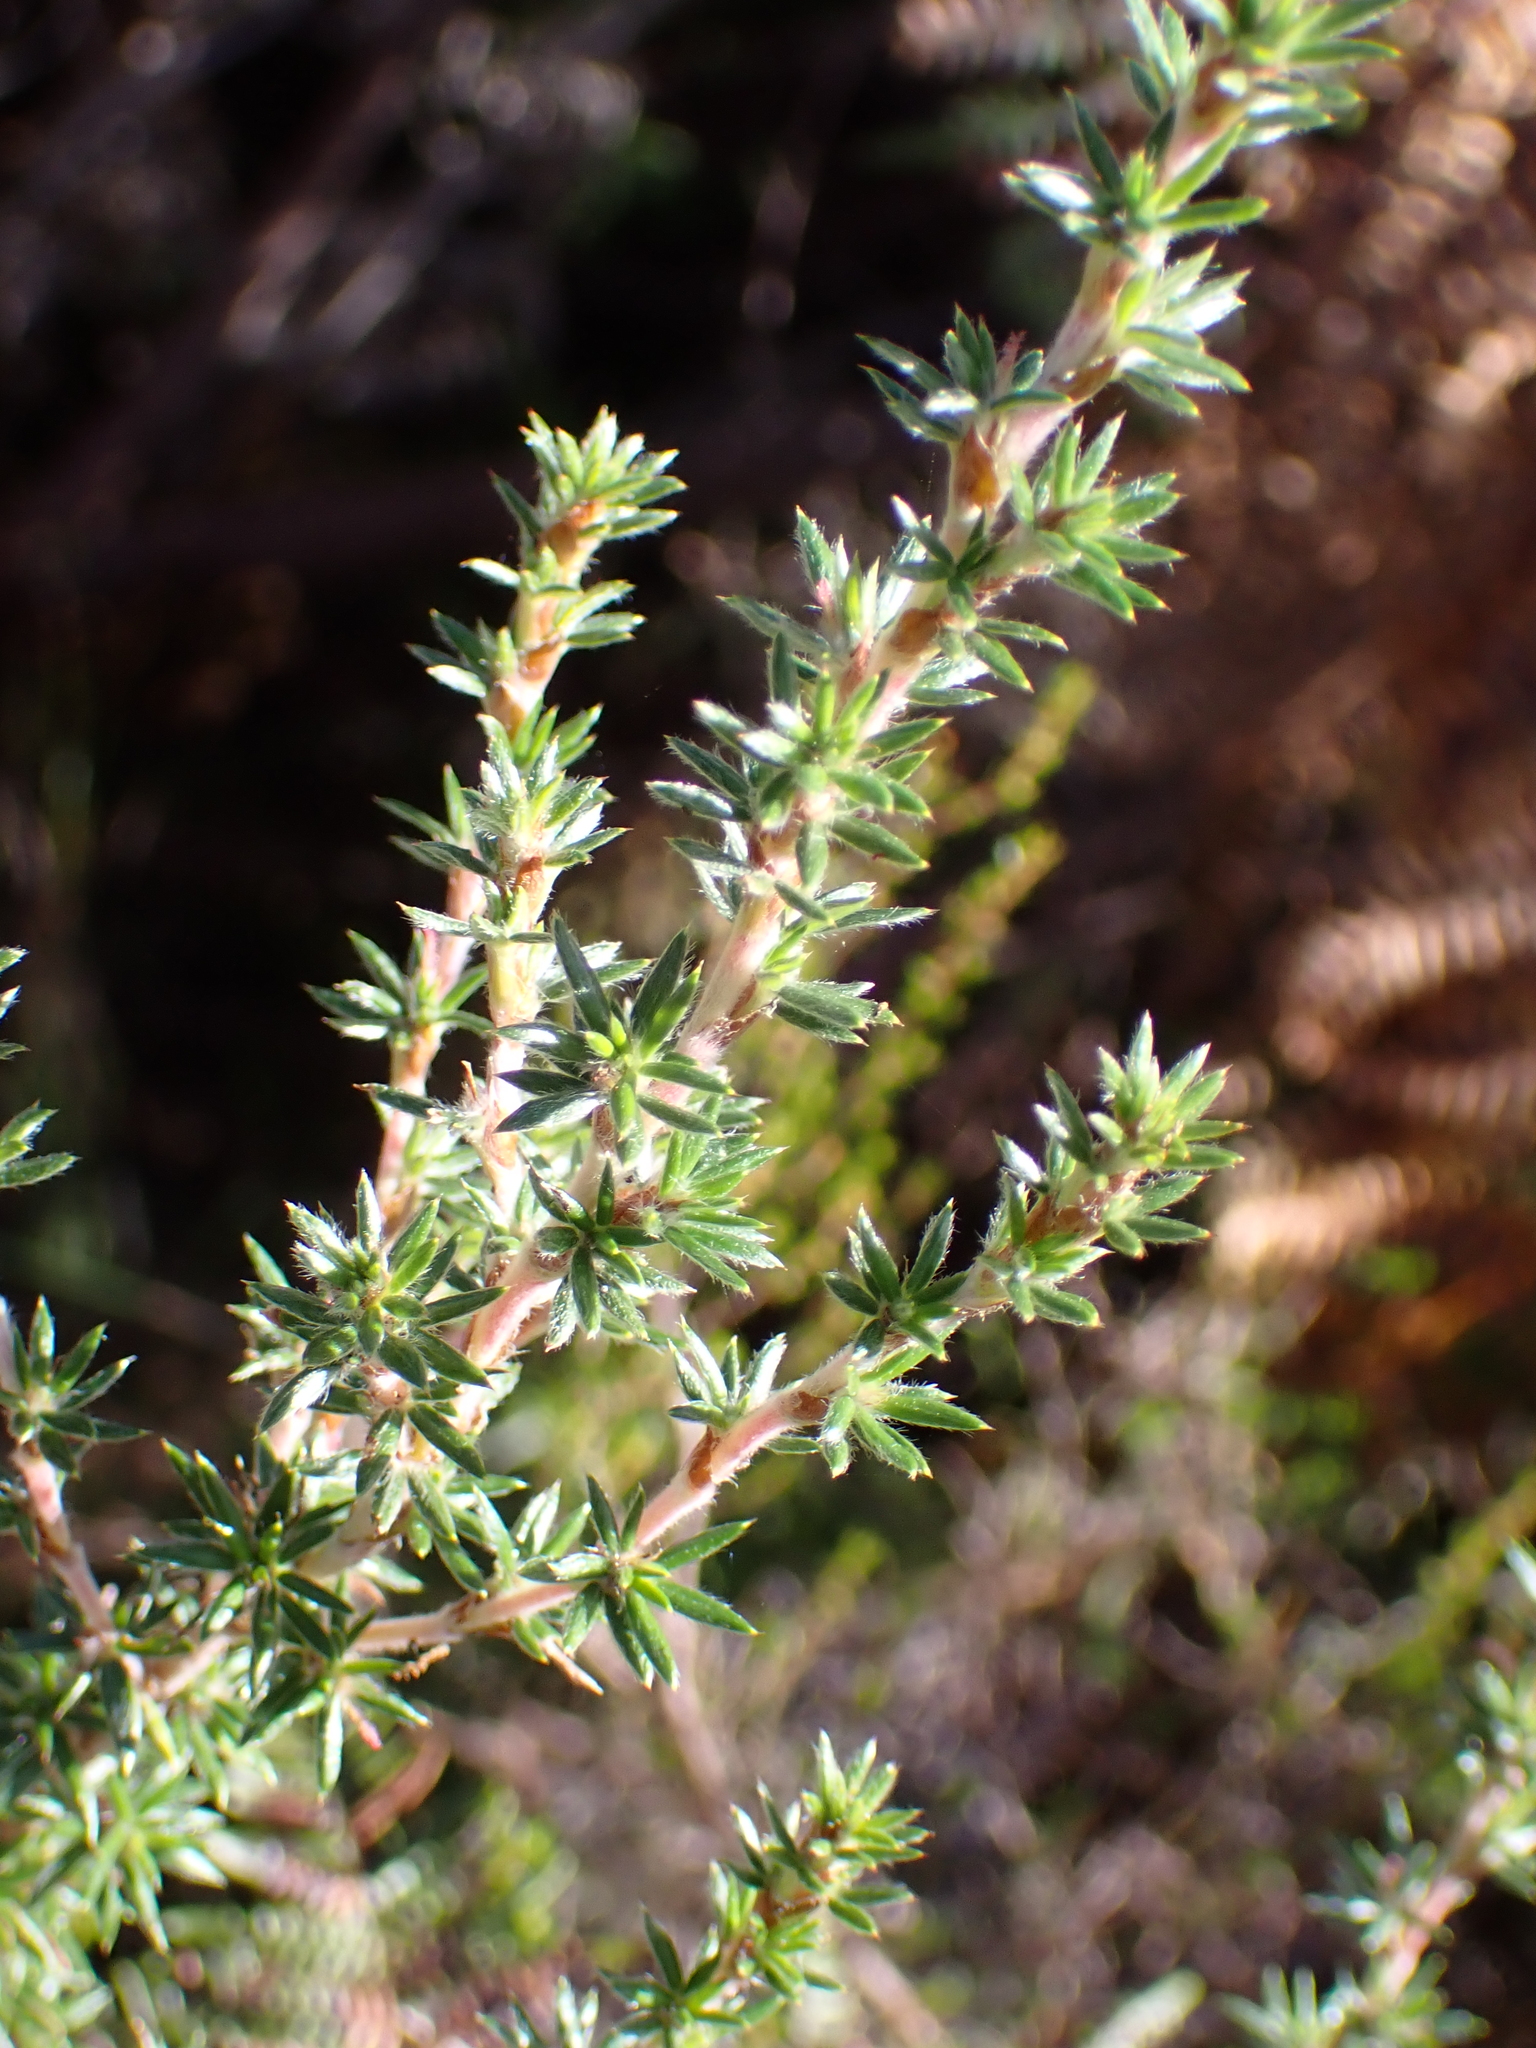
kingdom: Plantae
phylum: Tracheophyta
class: Magnoliopsida
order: Rosales
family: Rosaceae
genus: Cliffortia
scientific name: Cliffortia stricta
